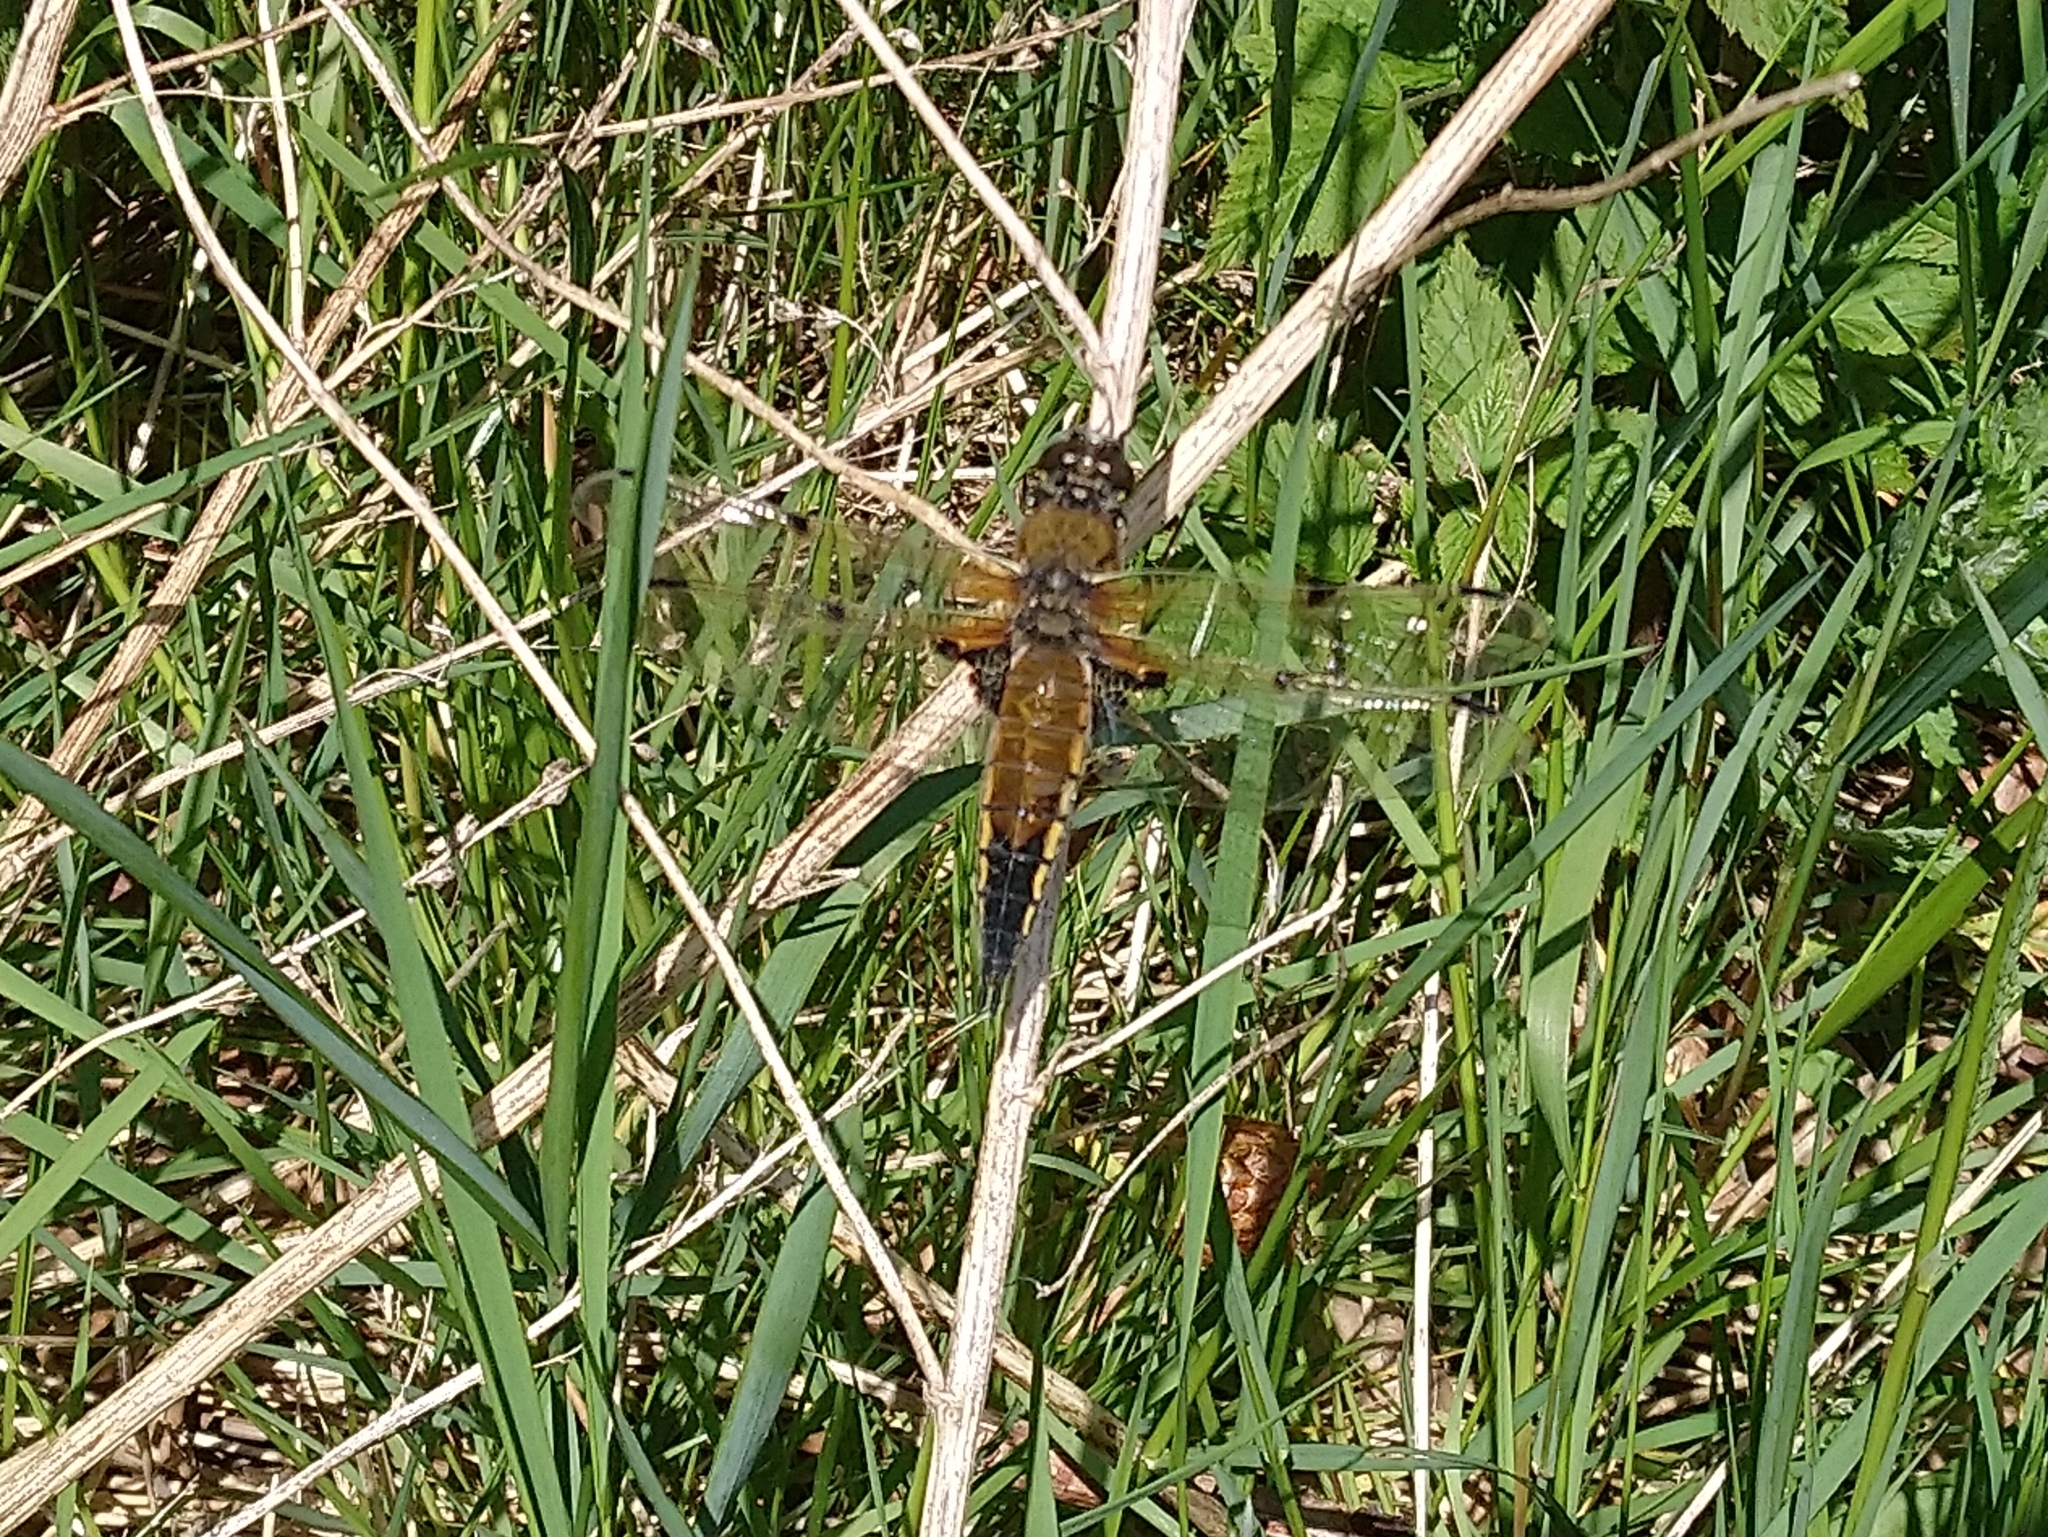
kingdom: Animalia
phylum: Arthropoda
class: Insecta
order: Odonata
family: Libellulidae
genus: Libellula
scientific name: Libellula quadrimaculata
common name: Four-spotted chaser
